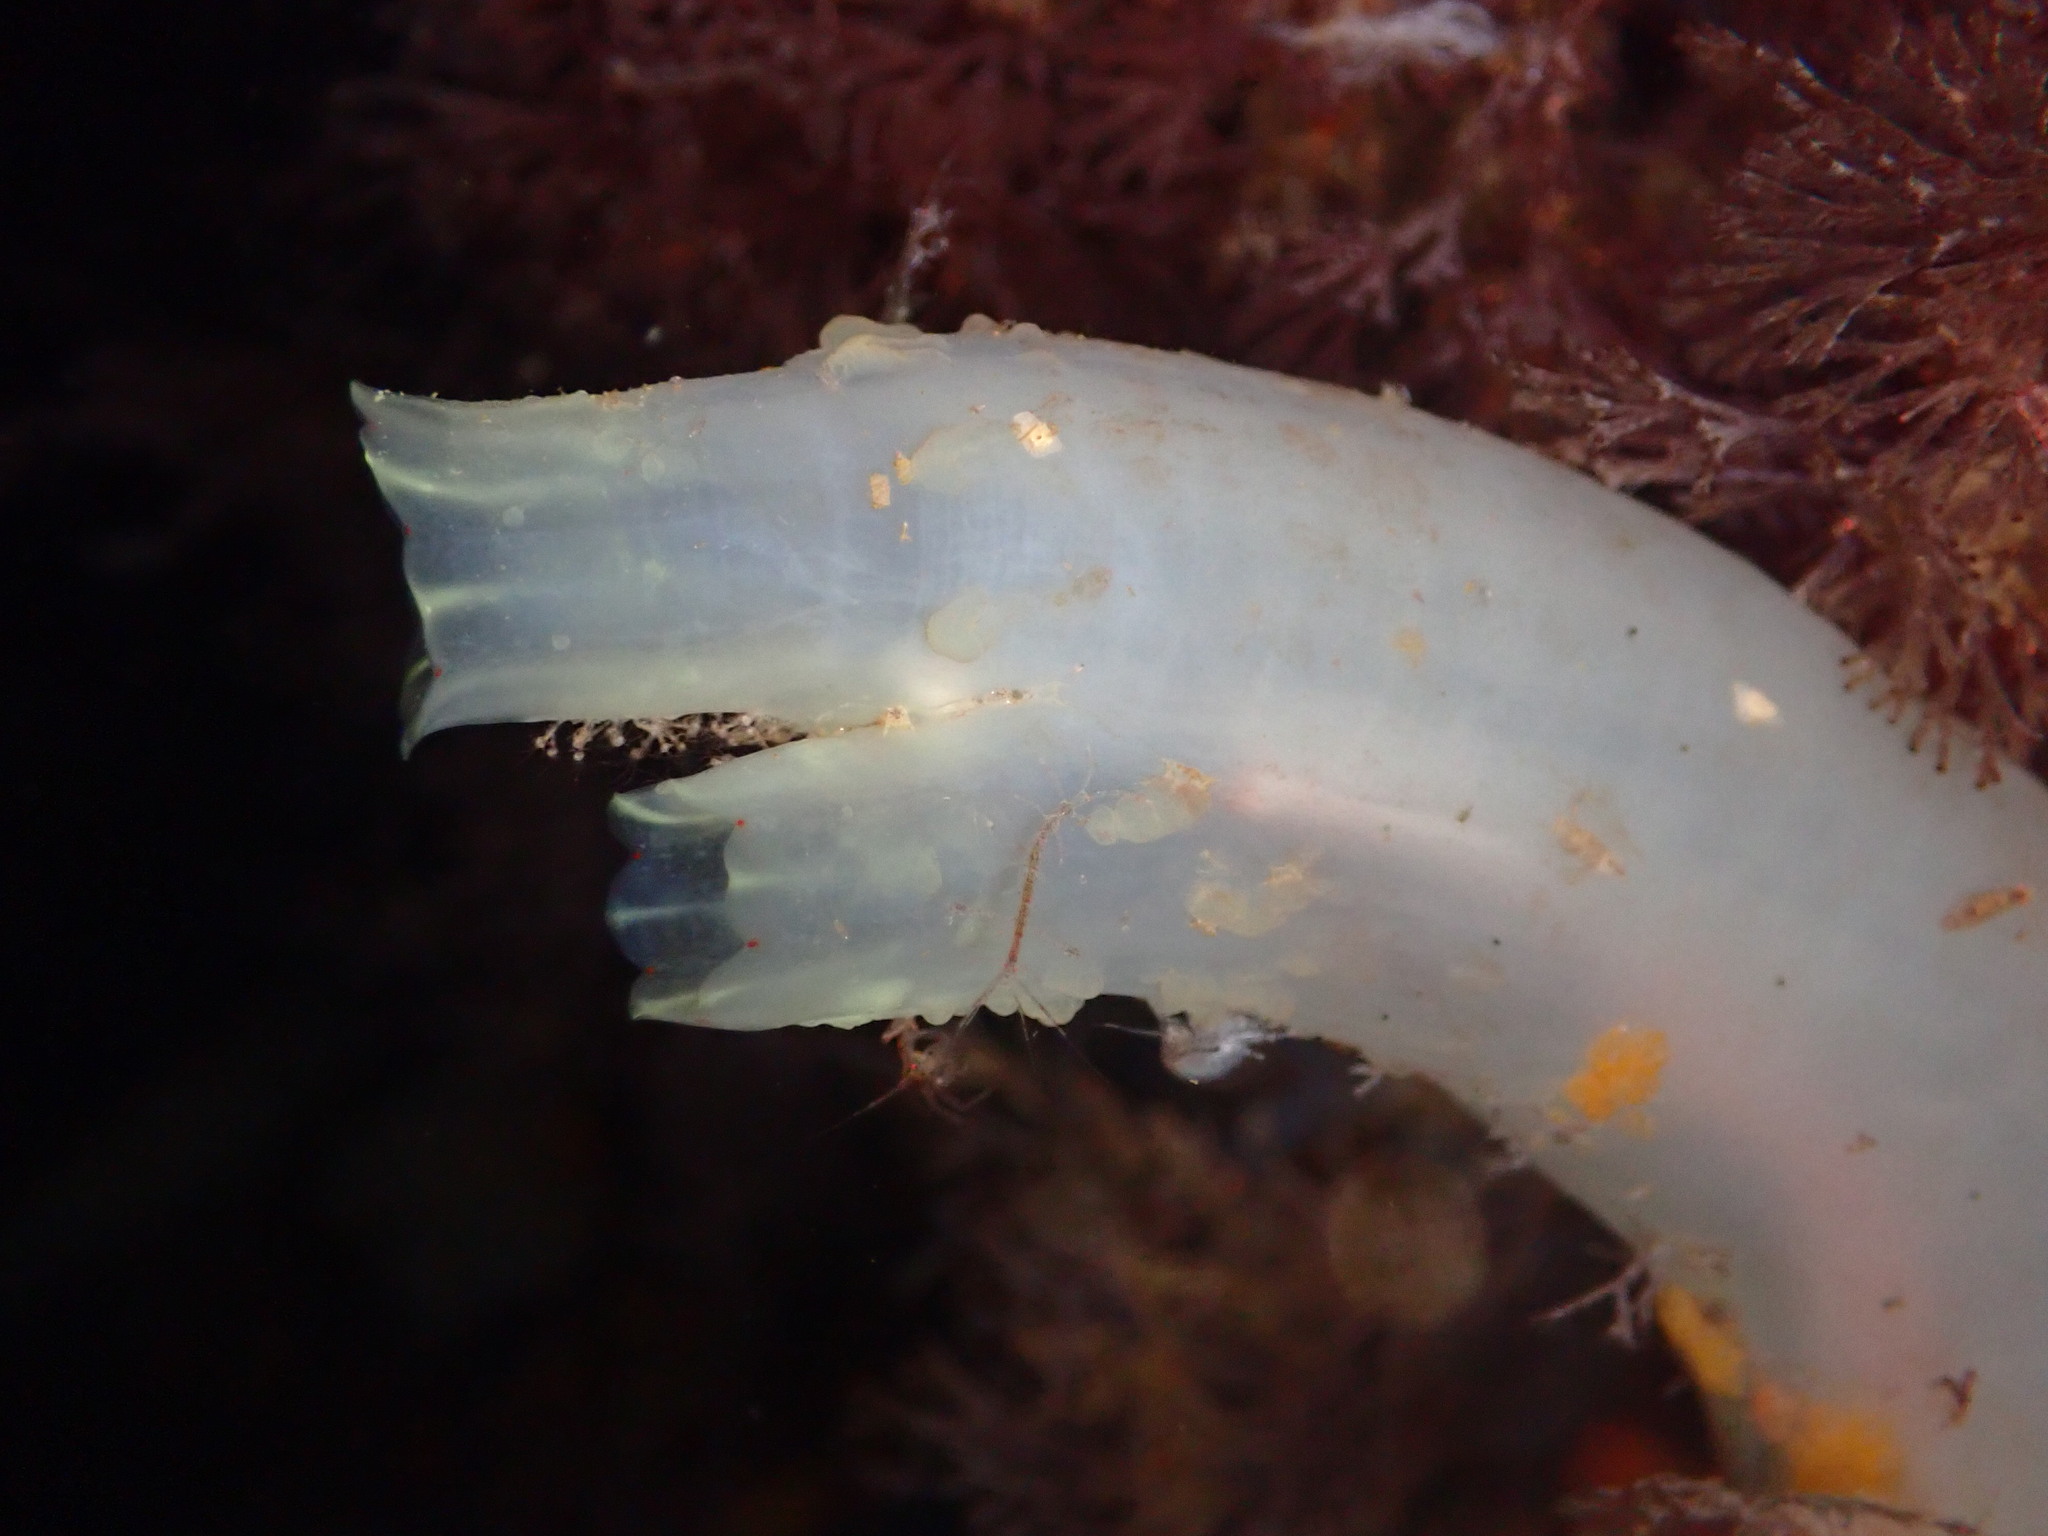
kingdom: Animalia
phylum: Chordata
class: Ascidiacea
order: Phlebobranchia
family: Cionidae
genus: Ciona
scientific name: Ciona robusta
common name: Tunicate
